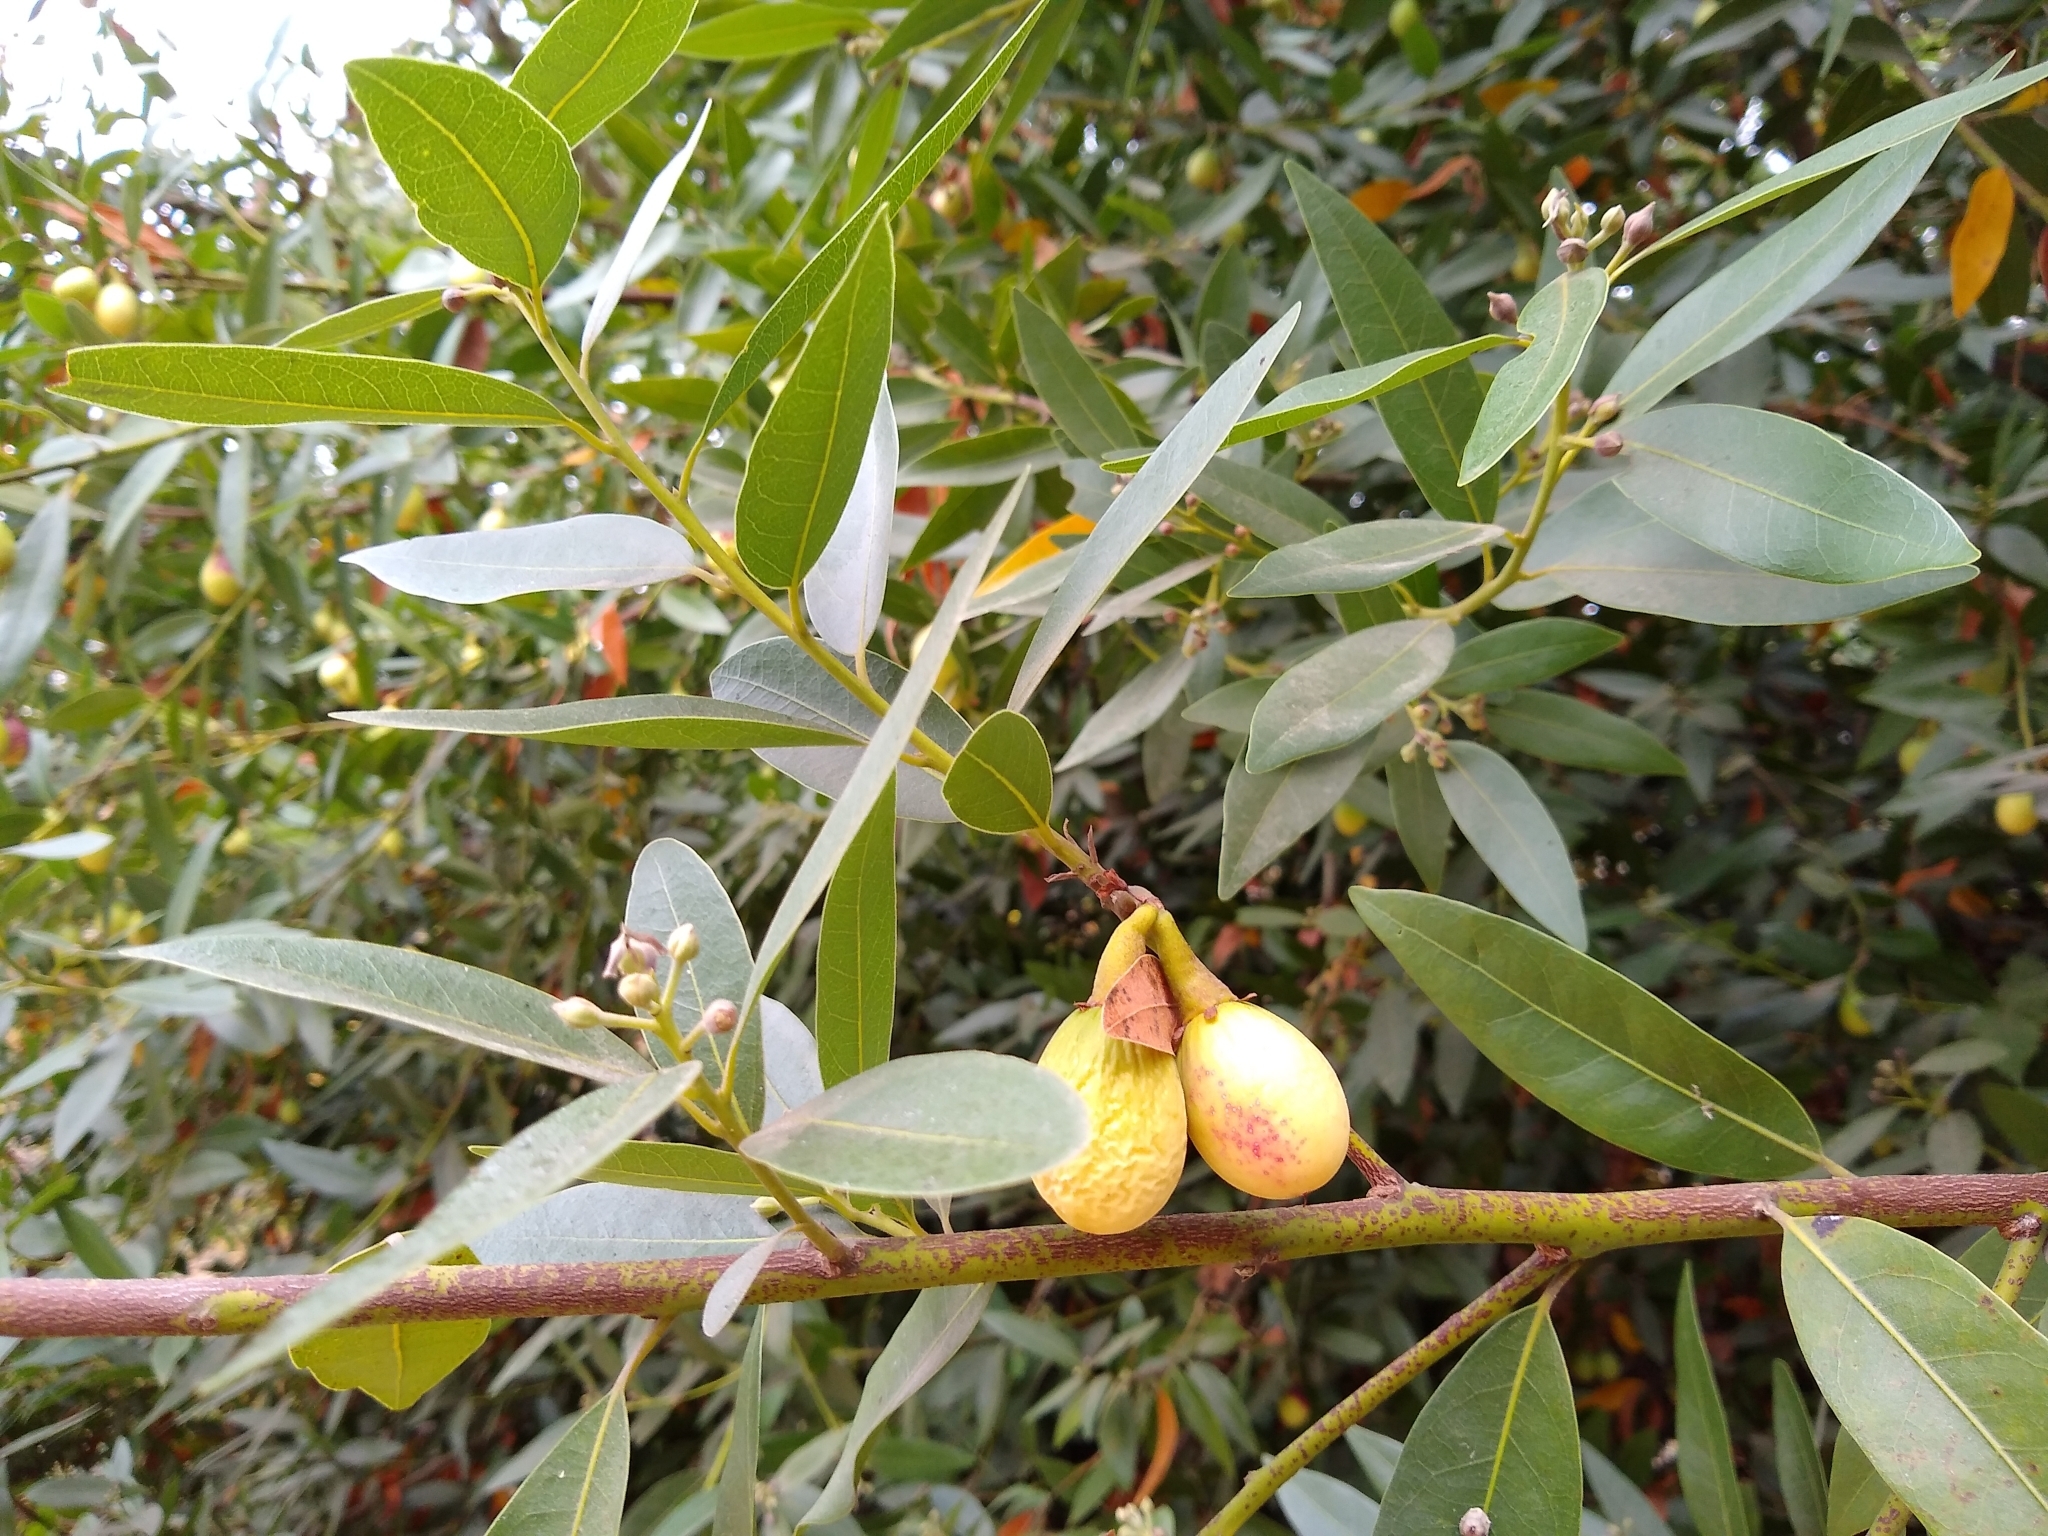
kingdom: Plantae
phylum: Tracheophyta
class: Magnoliopsida
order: Laurales
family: Lauraceae
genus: Umbellularia
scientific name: Umbellularia californica
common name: California bay
